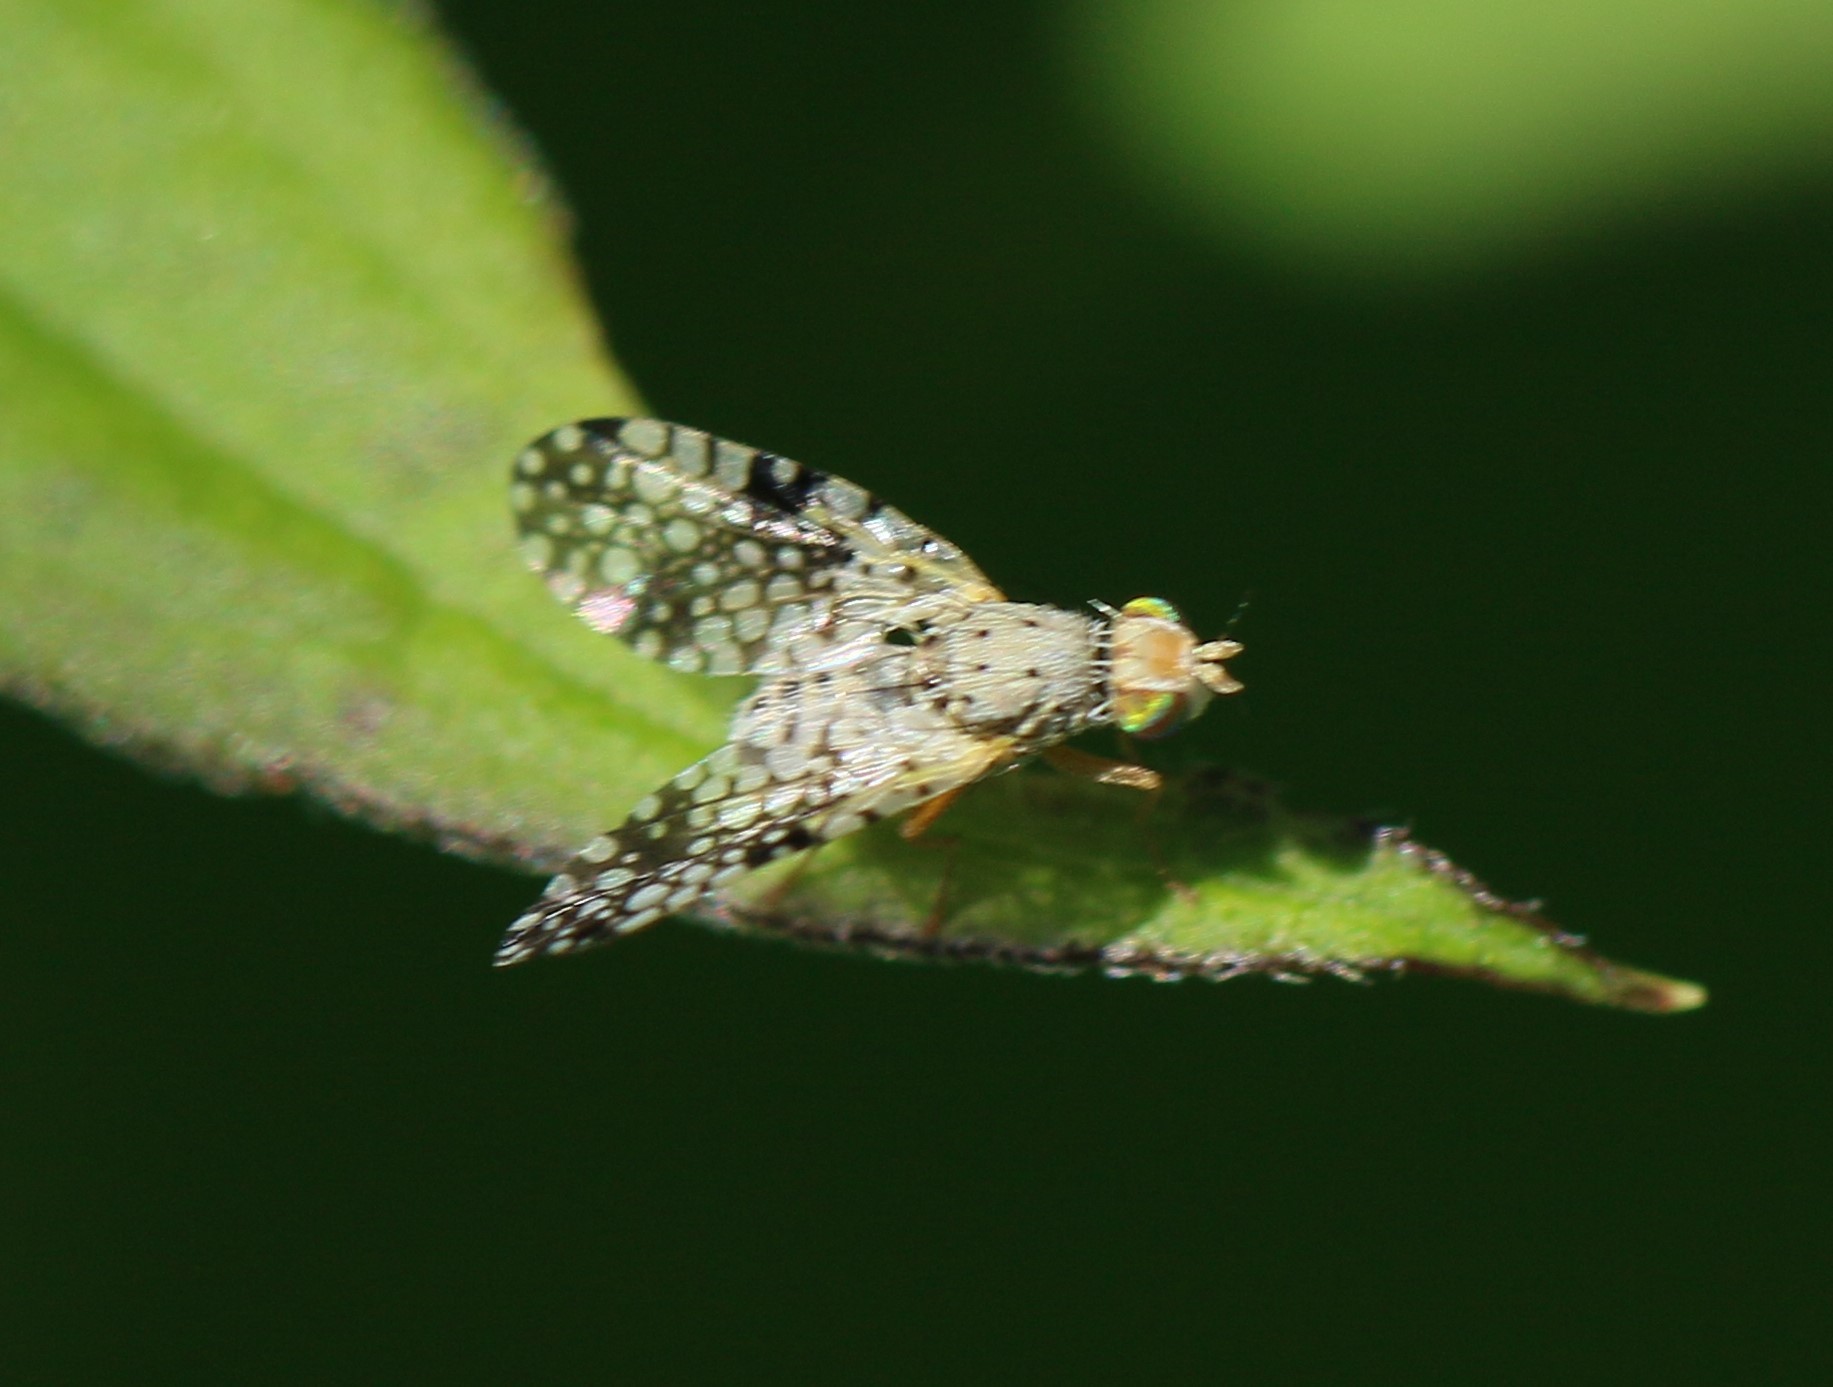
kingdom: Animalia
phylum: Arthropoda
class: Insecta
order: Diptera
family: Tephritidae
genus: Campiglossa
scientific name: Campiglossa albiceps
